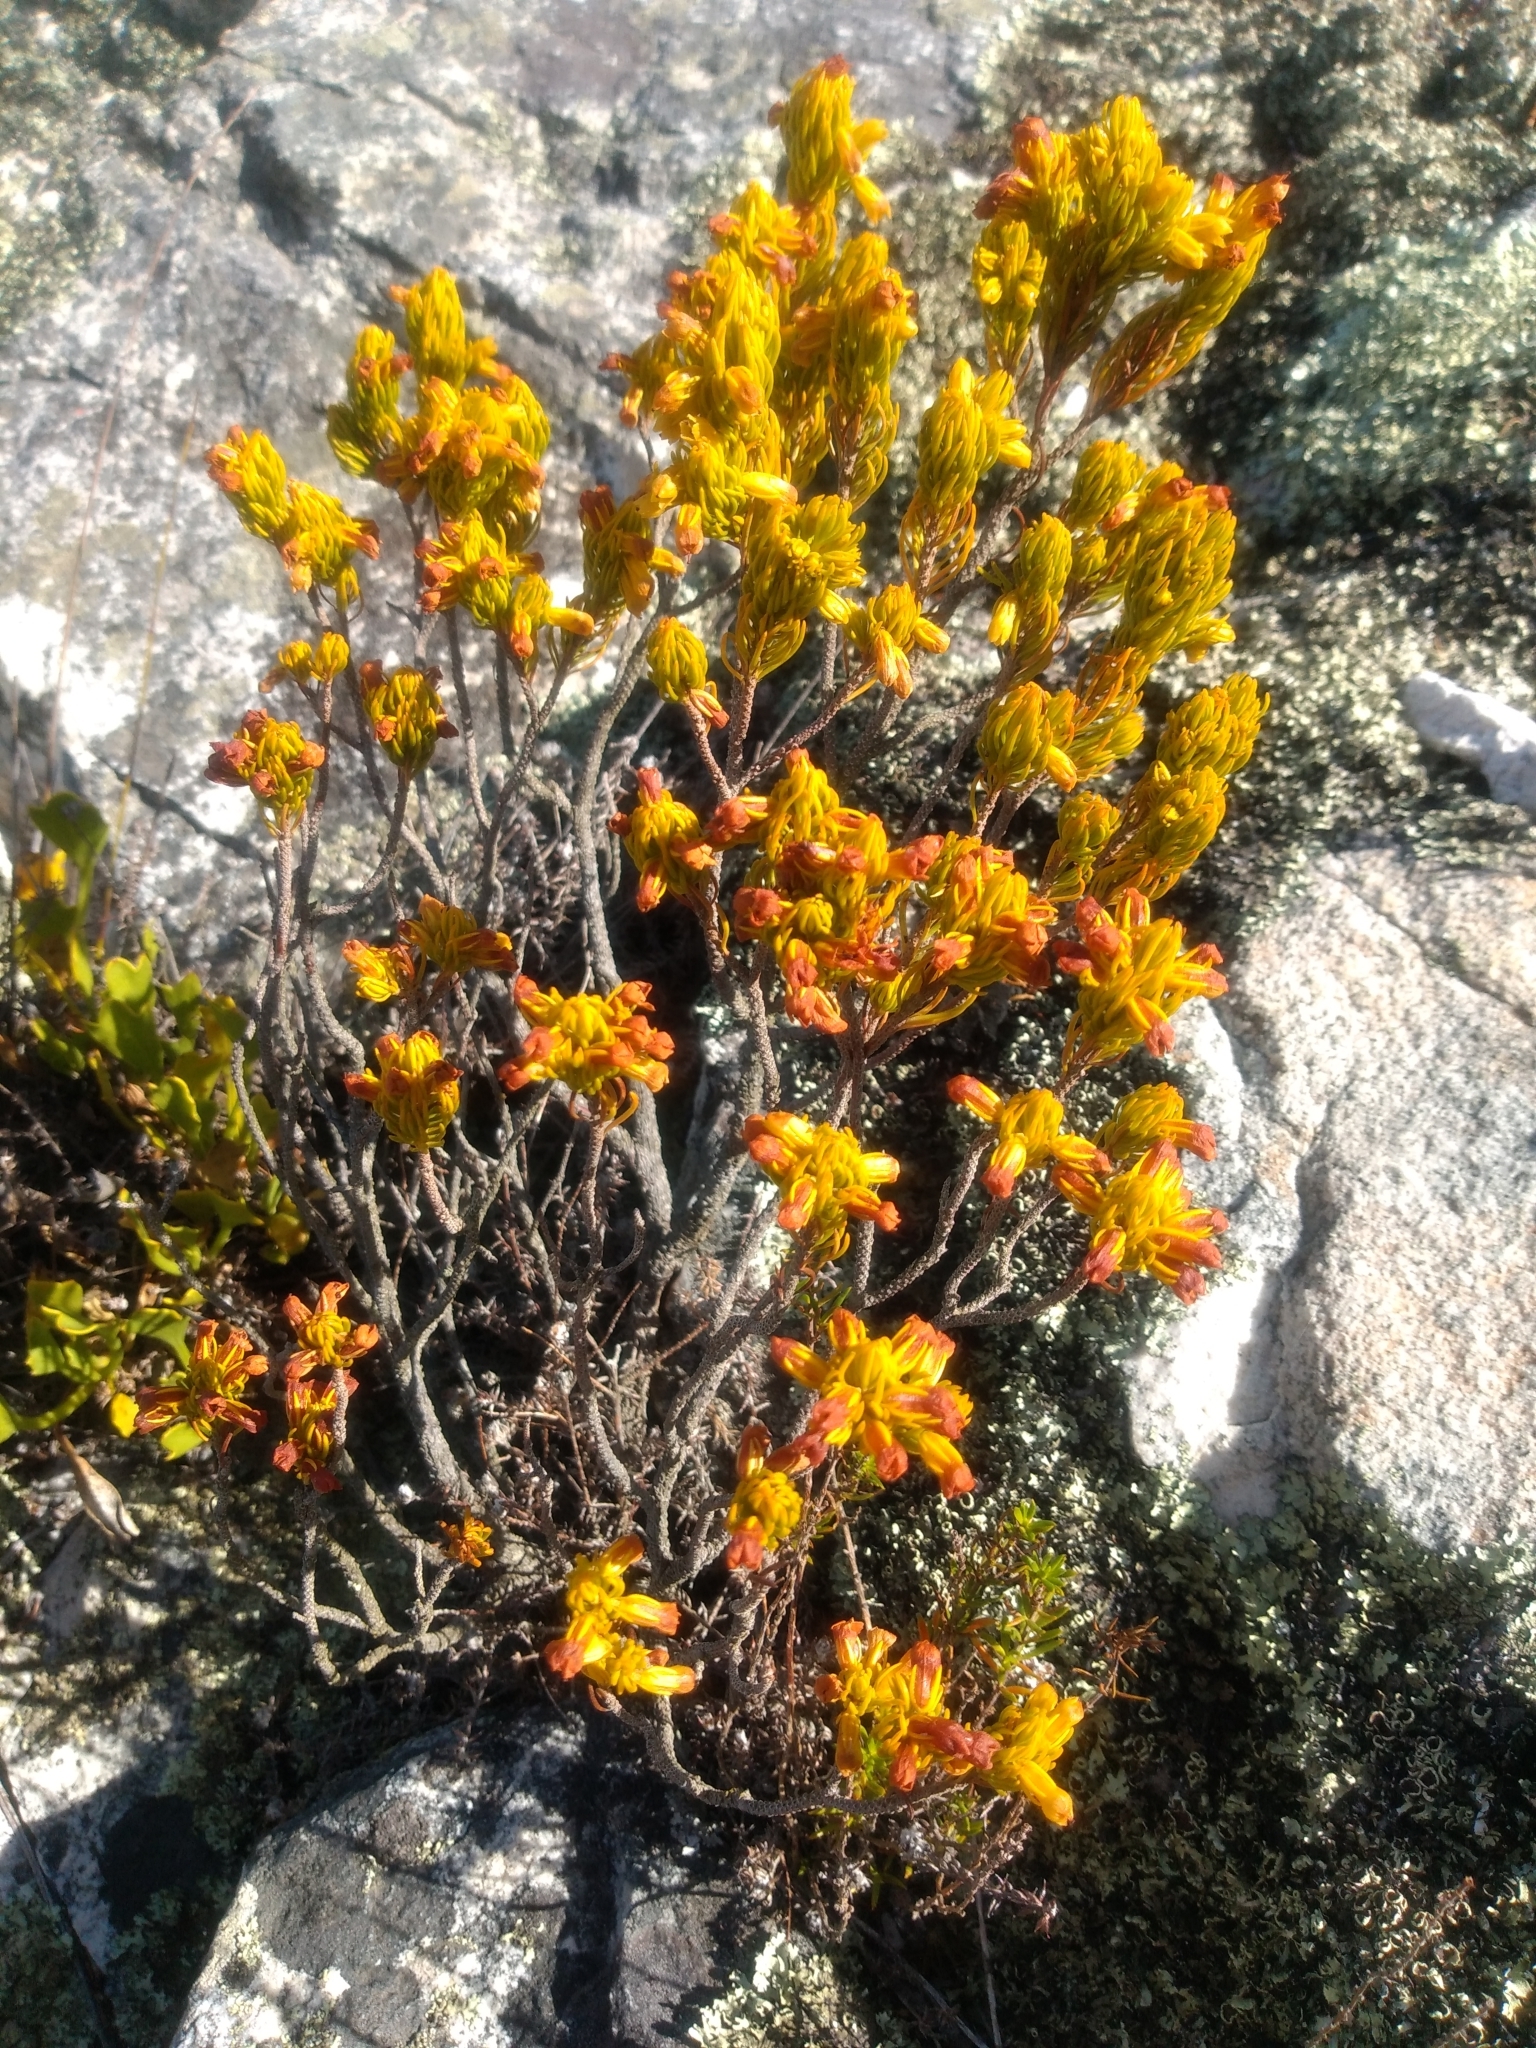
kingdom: Plantae
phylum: Tracheophyta
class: Magnoliopsida
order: Ericales
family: Ericaceae
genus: Erica
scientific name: Erica petrusiana
